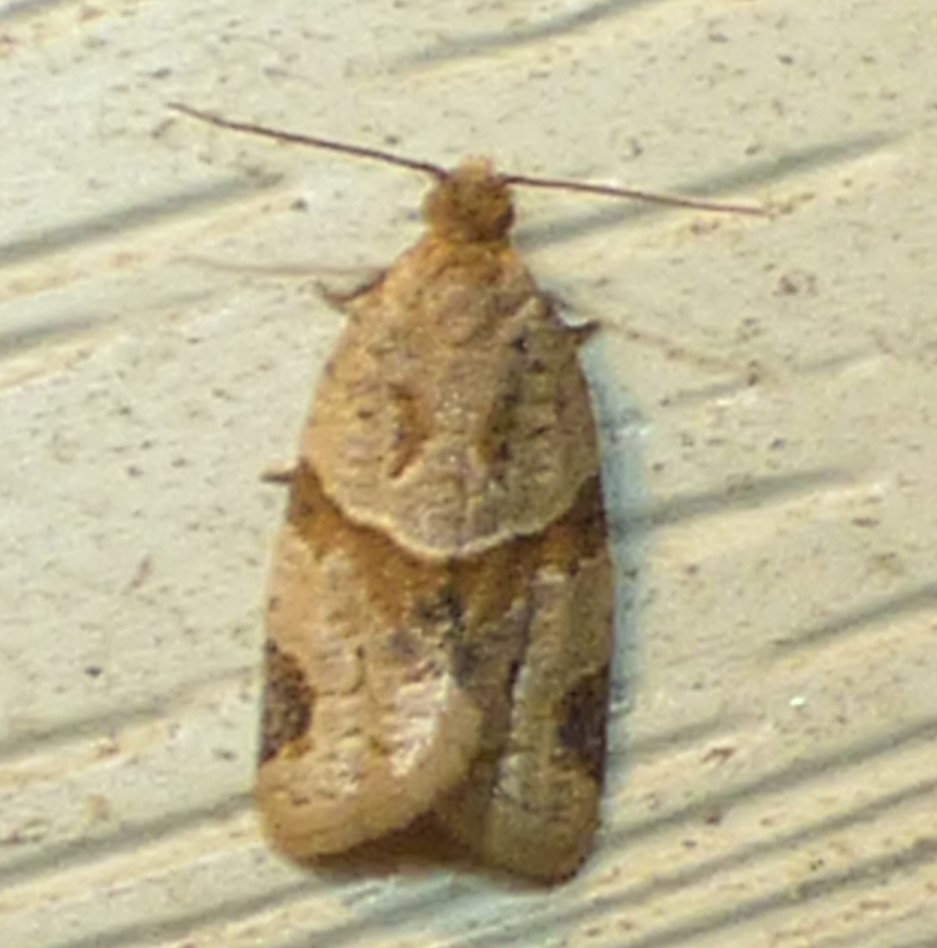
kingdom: Animalia
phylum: Arthropoda
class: Insecta
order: Lepidoptera
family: Tortricidae
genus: Clepsis
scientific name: Clepsis peritana
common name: Garden tortrix
